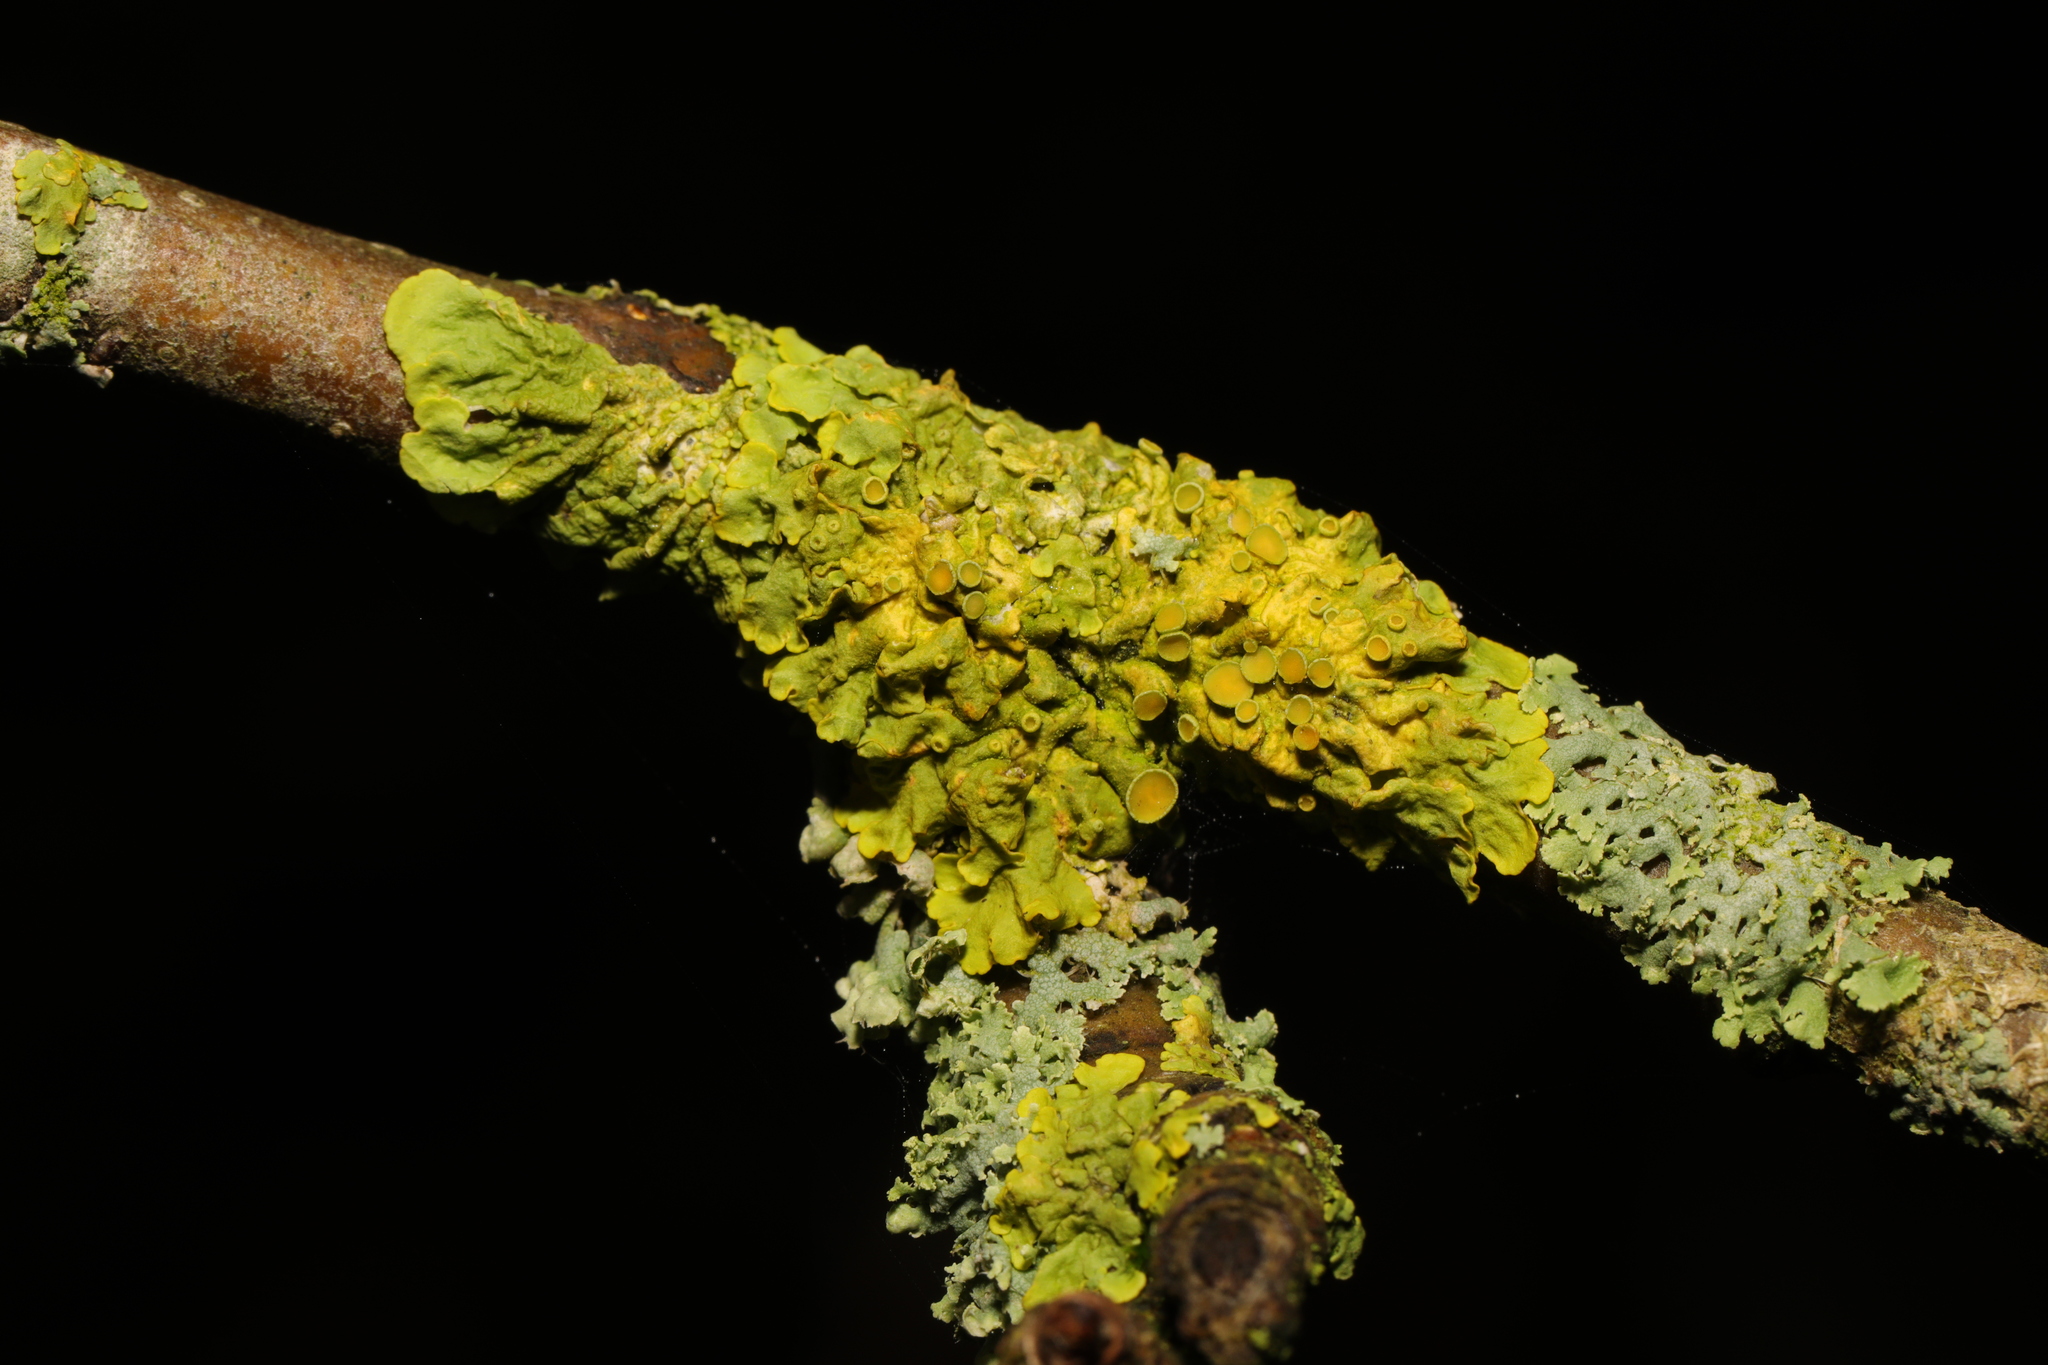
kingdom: Fungi
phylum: Ascomycota
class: Lecanoromycetes
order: Teloschistales
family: Teloschistaceae
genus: Xanthoria
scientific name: Xanthoria parietina
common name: Common orange lichen
